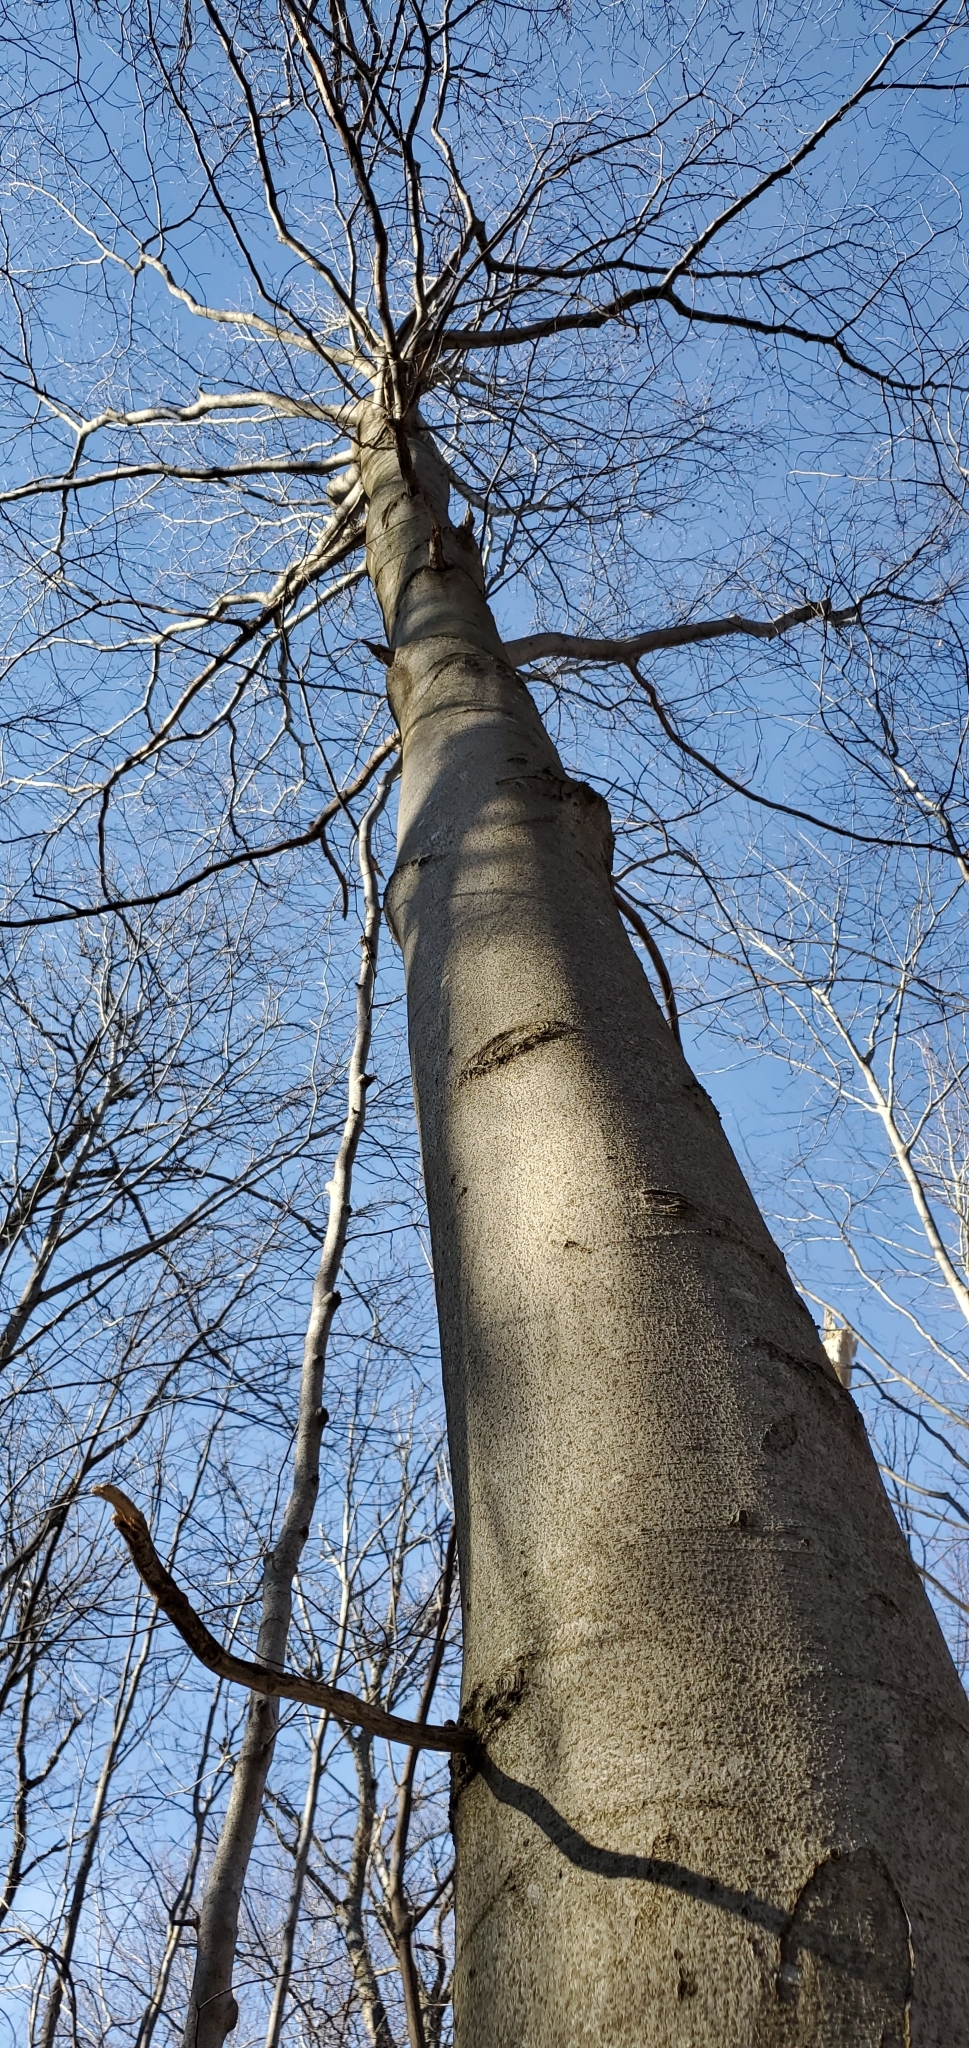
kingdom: Plantae
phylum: Tracheophyta
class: Magnoliopsida
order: Fagales
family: Fagaceae
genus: Fagus
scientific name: Fagus grandifolia
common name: American beech
